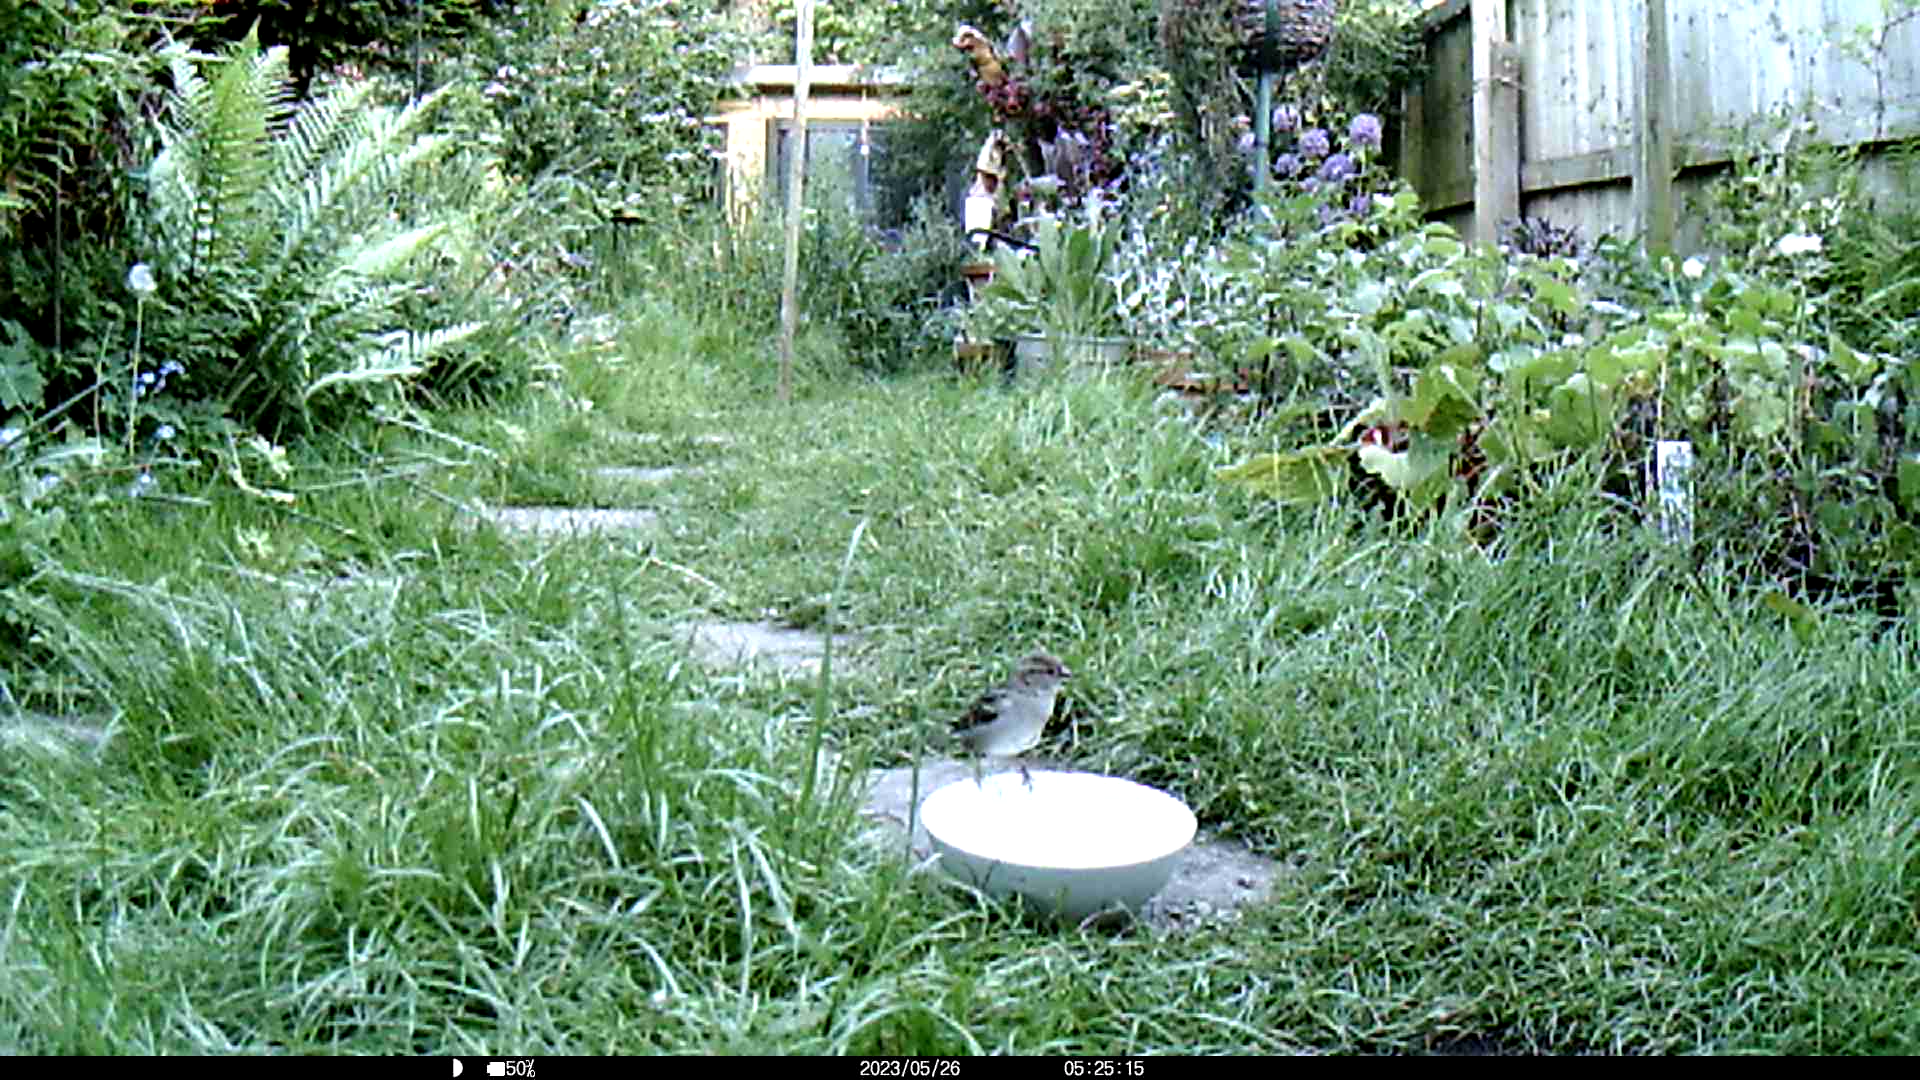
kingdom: Animalia
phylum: Chordata
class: Aves
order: Passeriformes
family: Passeridae
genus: Passer
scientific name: Passer domesticus
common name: House sparrow
